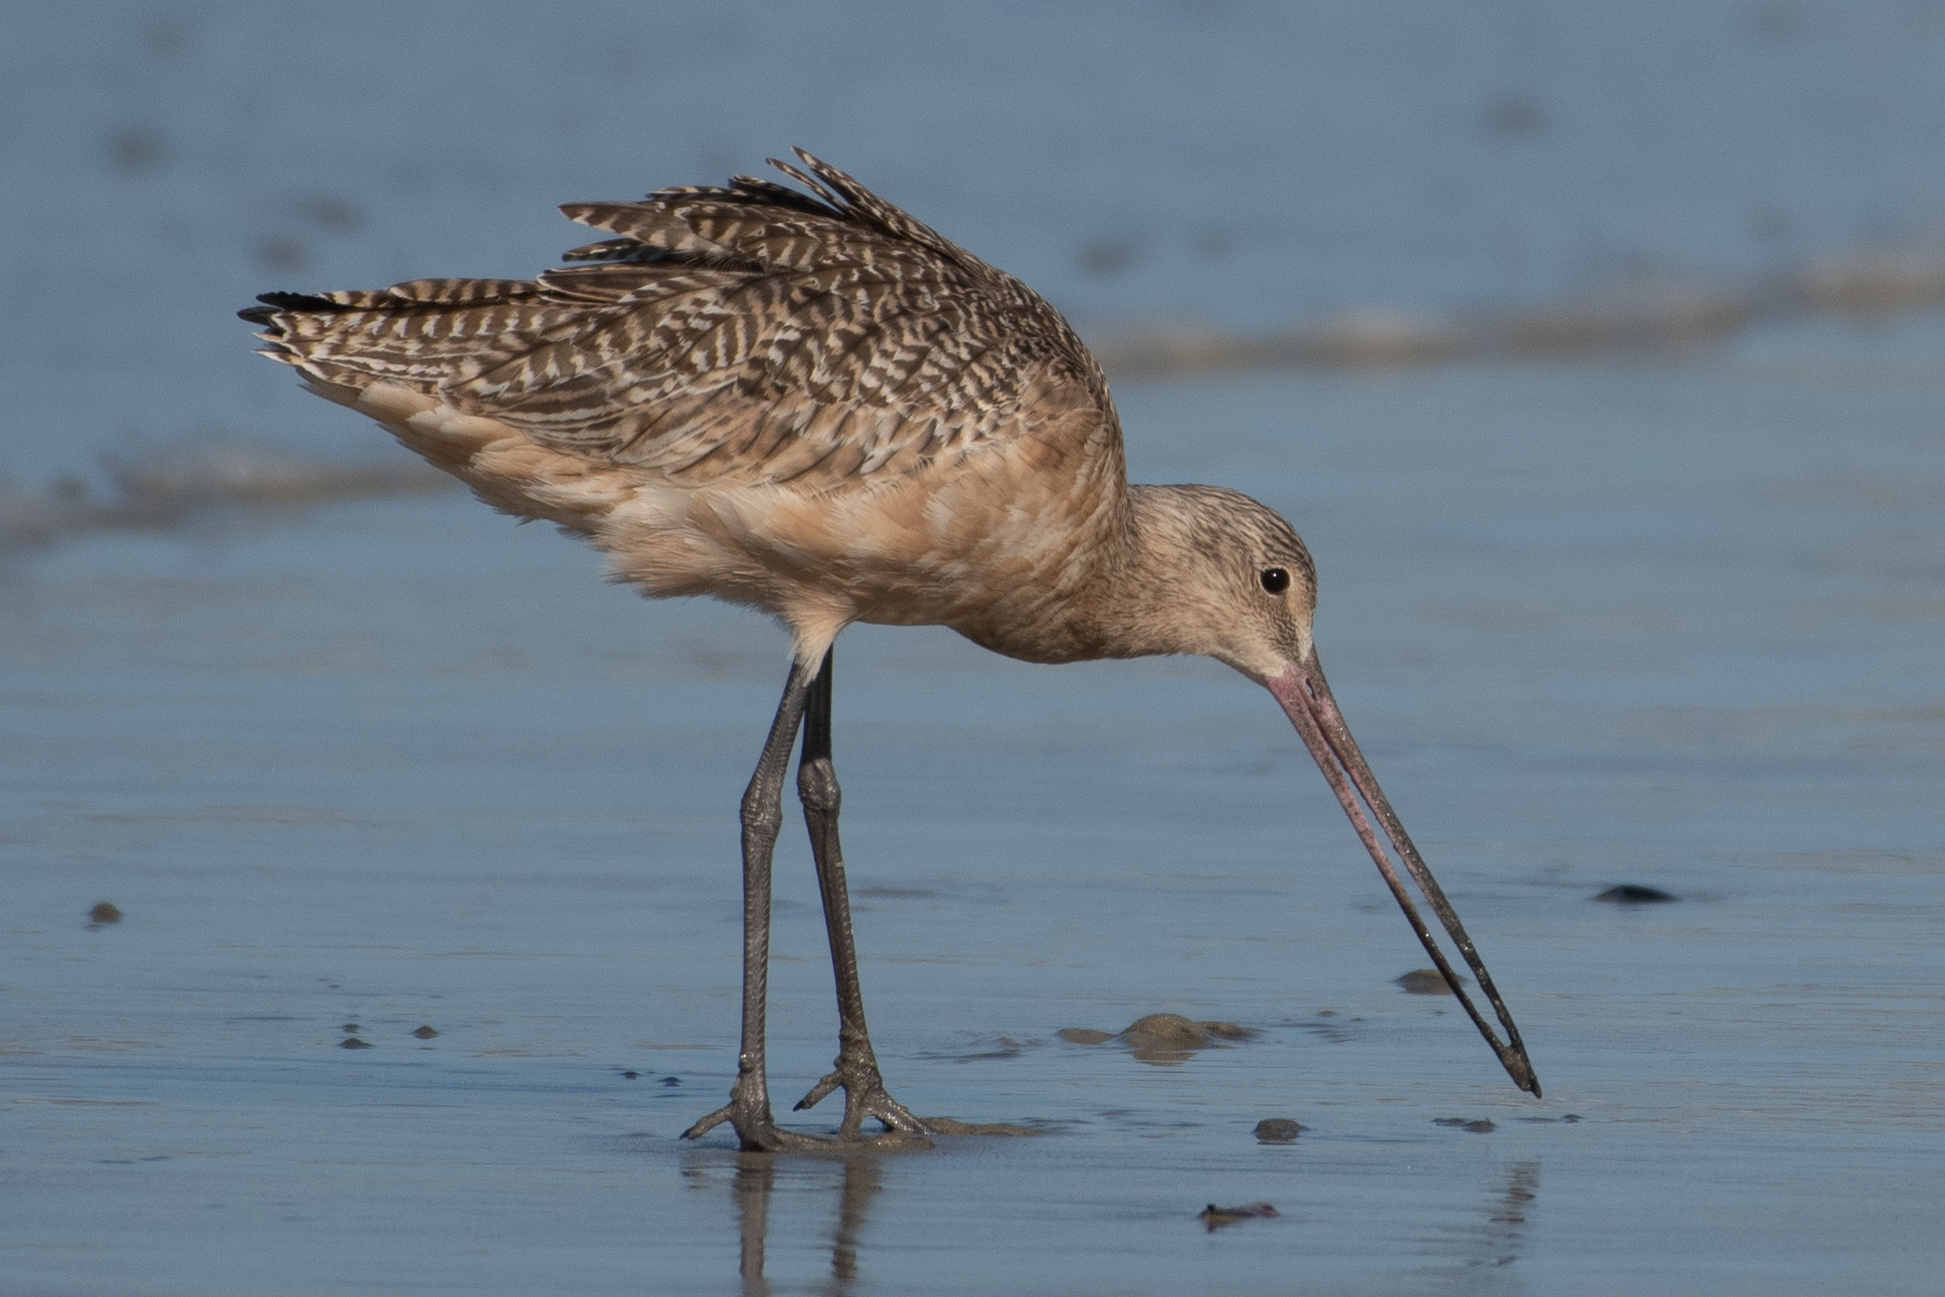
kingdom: Animalia
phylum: Chordata
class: Aves
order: Charadriiformes
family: Scolopacidae
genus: Limosa
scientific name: Limosa fedoa
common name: Marbled godwit
